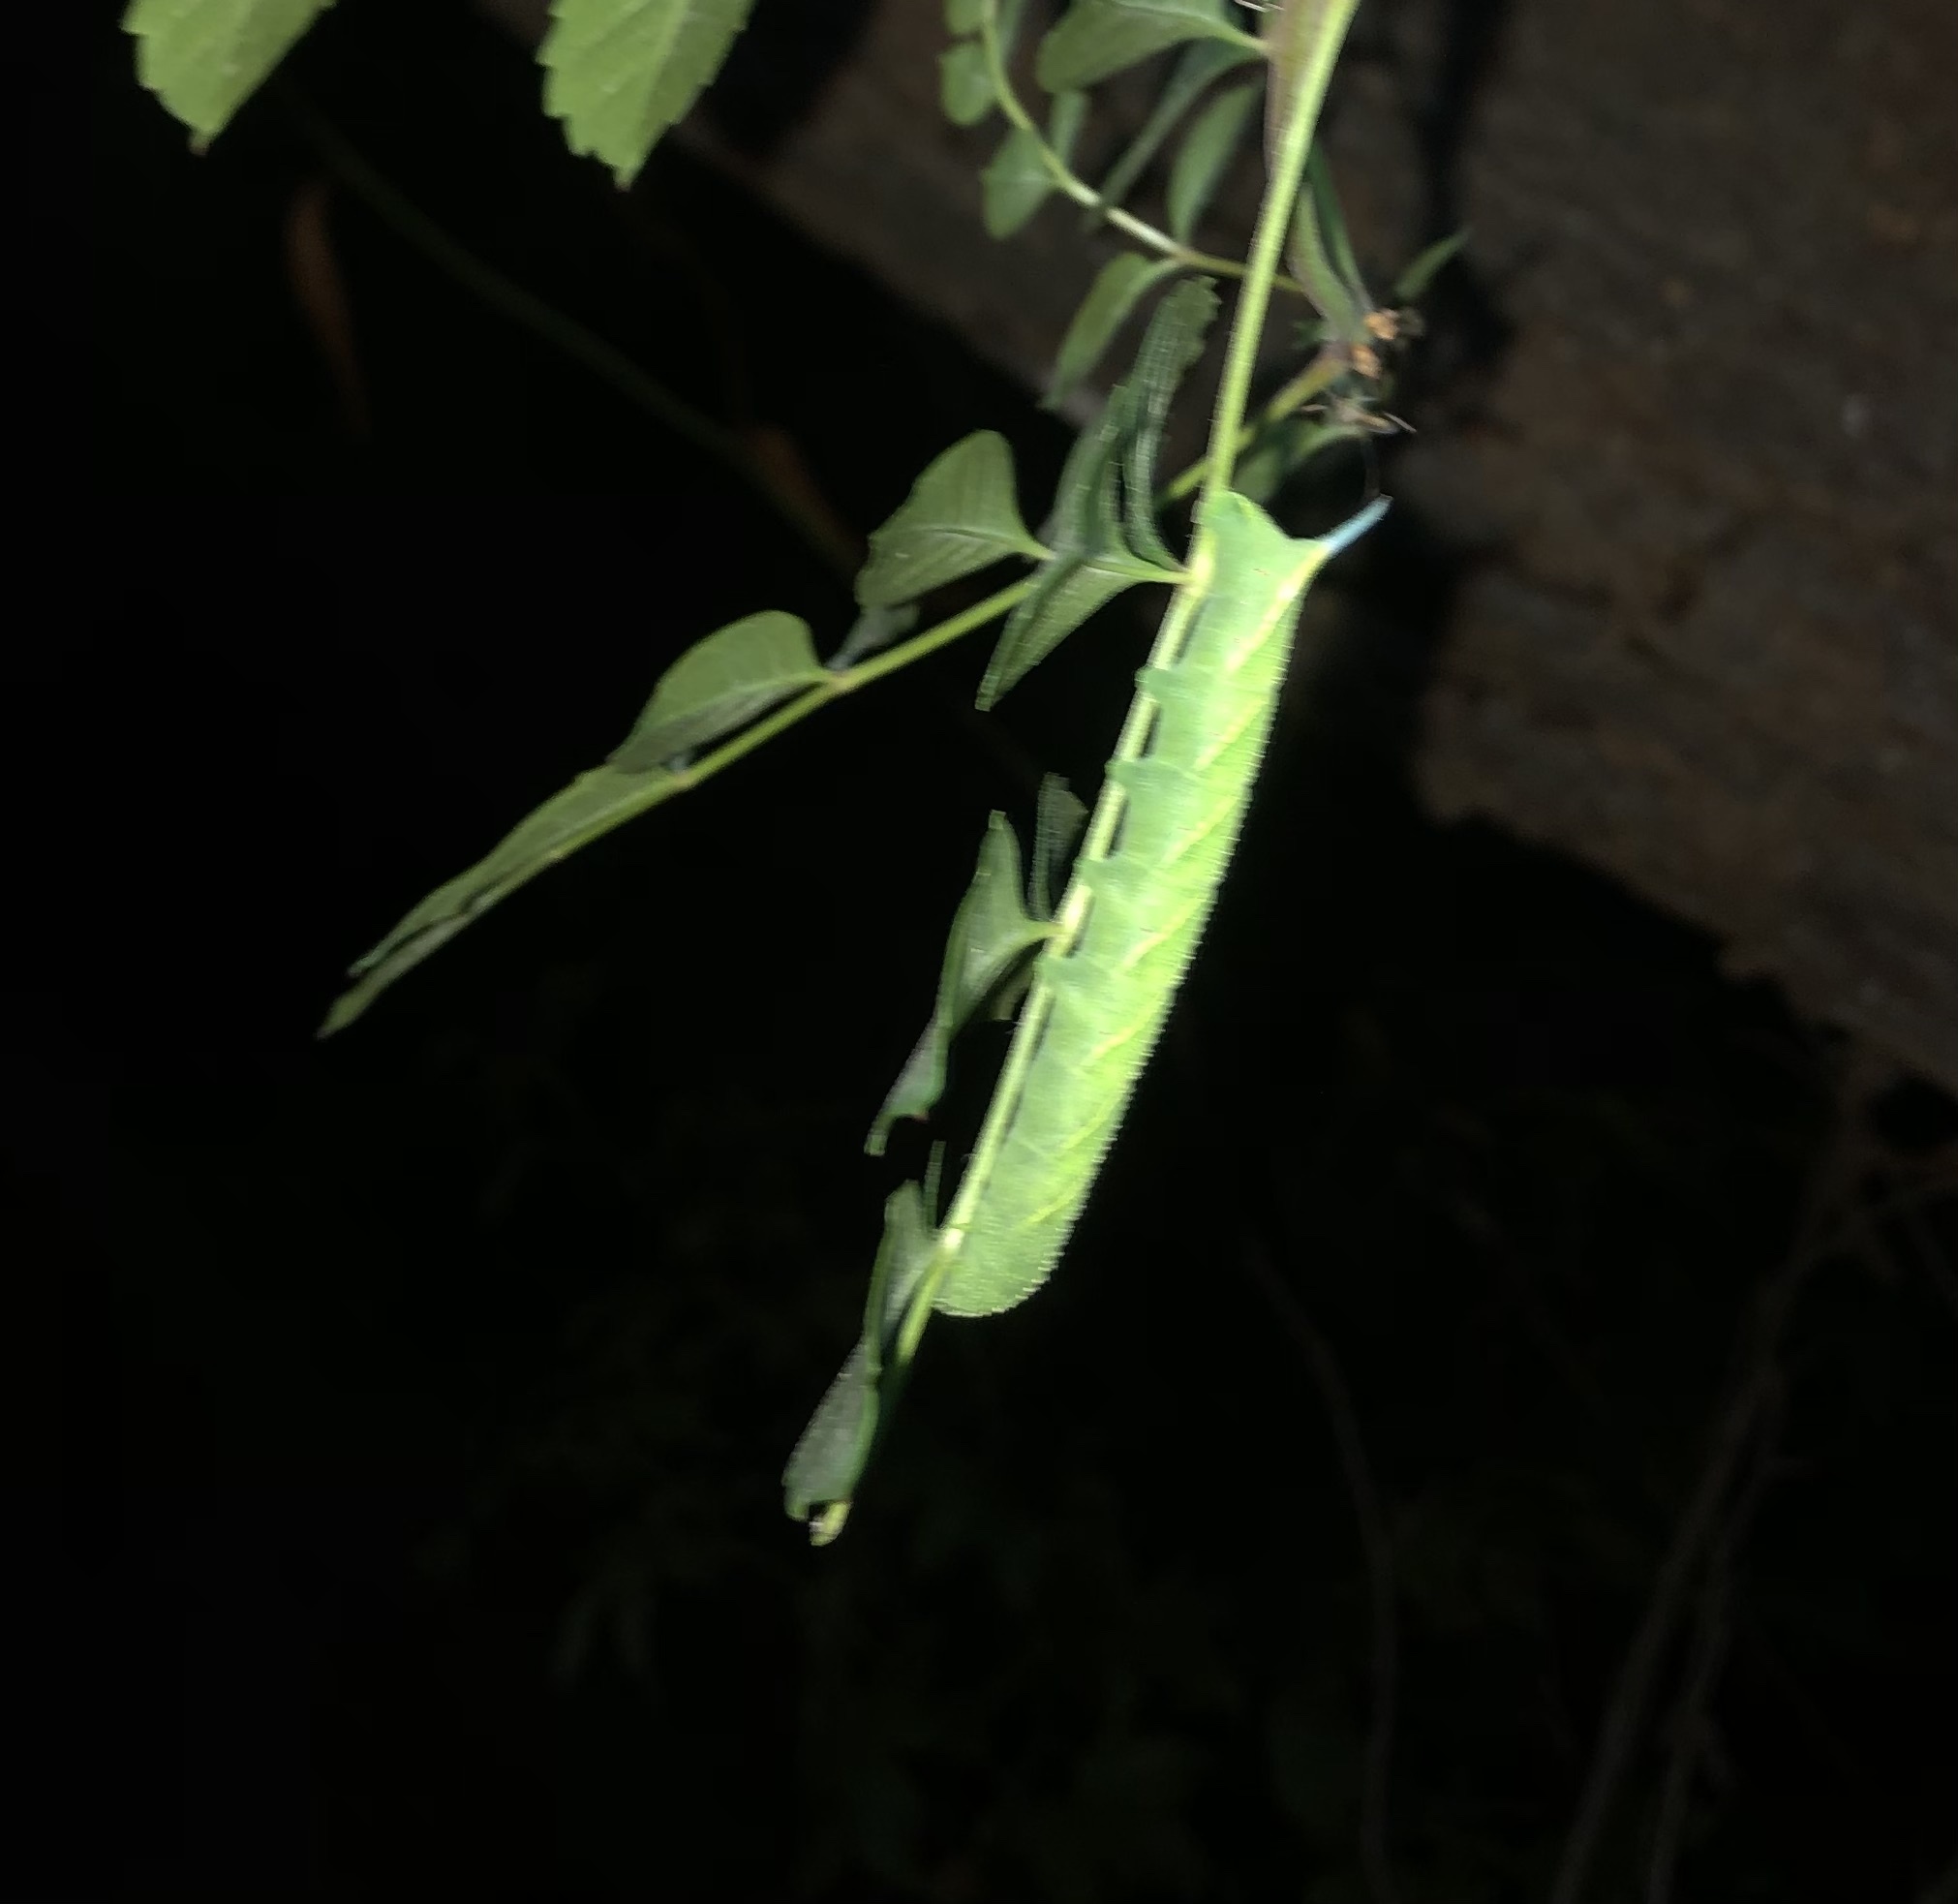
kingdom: Animalia
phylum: Arthropoda
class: Insecta
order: Lepidoptera
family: Sphingidae
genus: Paratrea
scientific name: Paratrea plebeja
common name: Plebian sphinx
